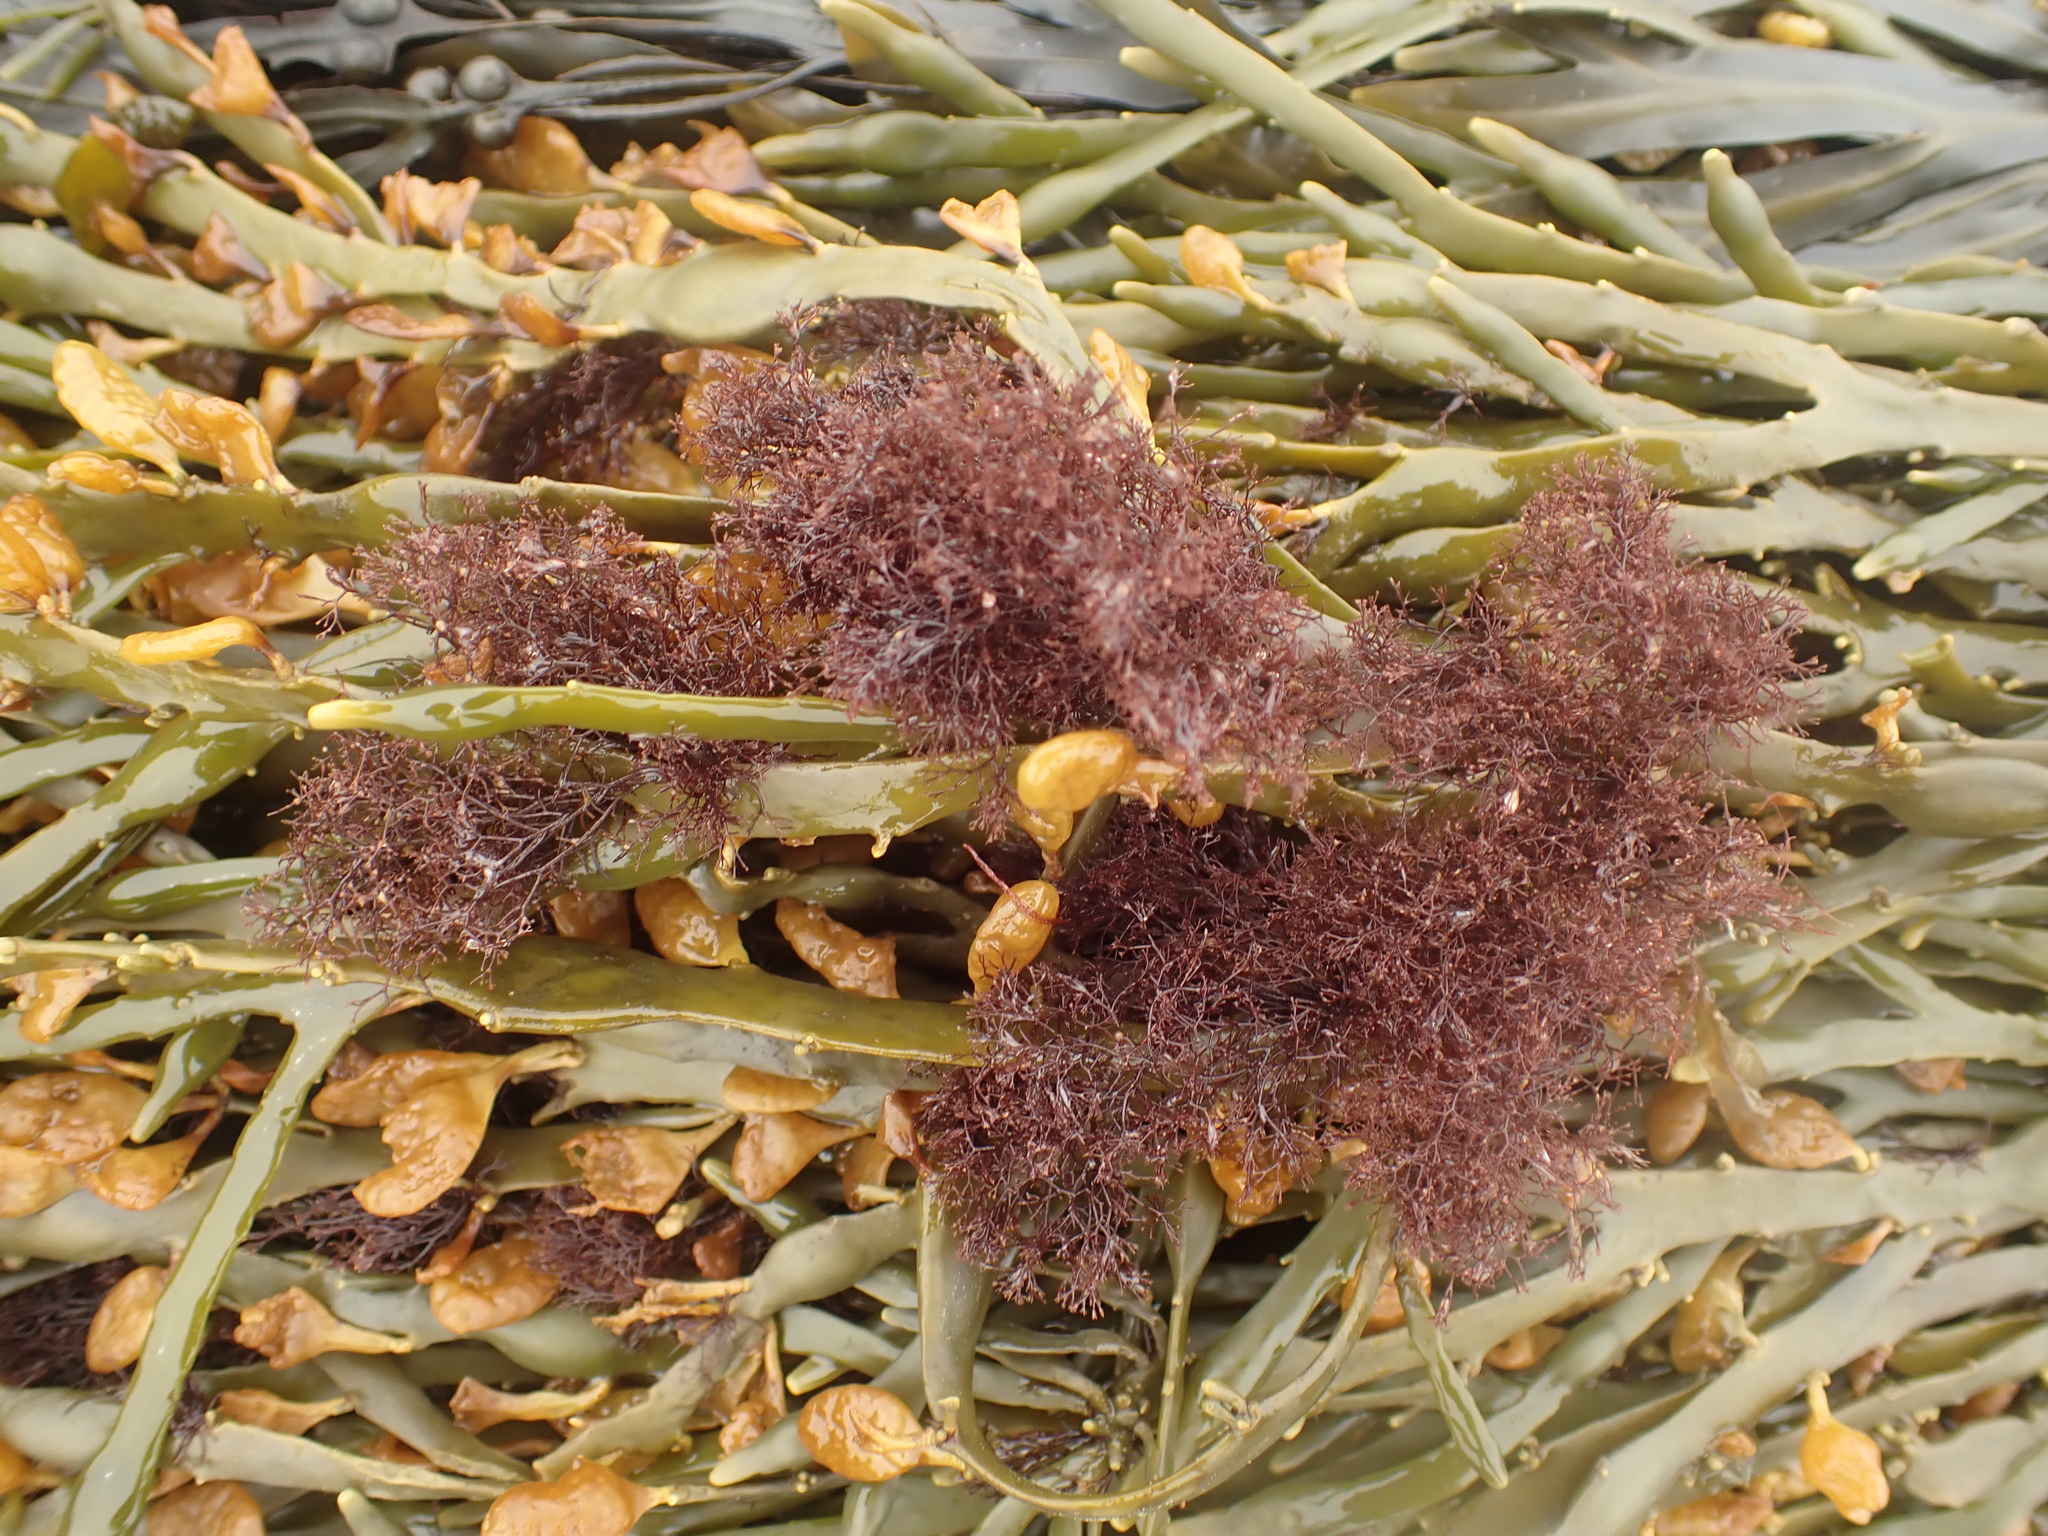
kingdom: Plantae
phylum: Rhodophyta
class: Florideophyceae
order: Ceramiales
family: Rhodomelaceae
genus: Vertebrata
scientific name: Vertebrata lanosa
